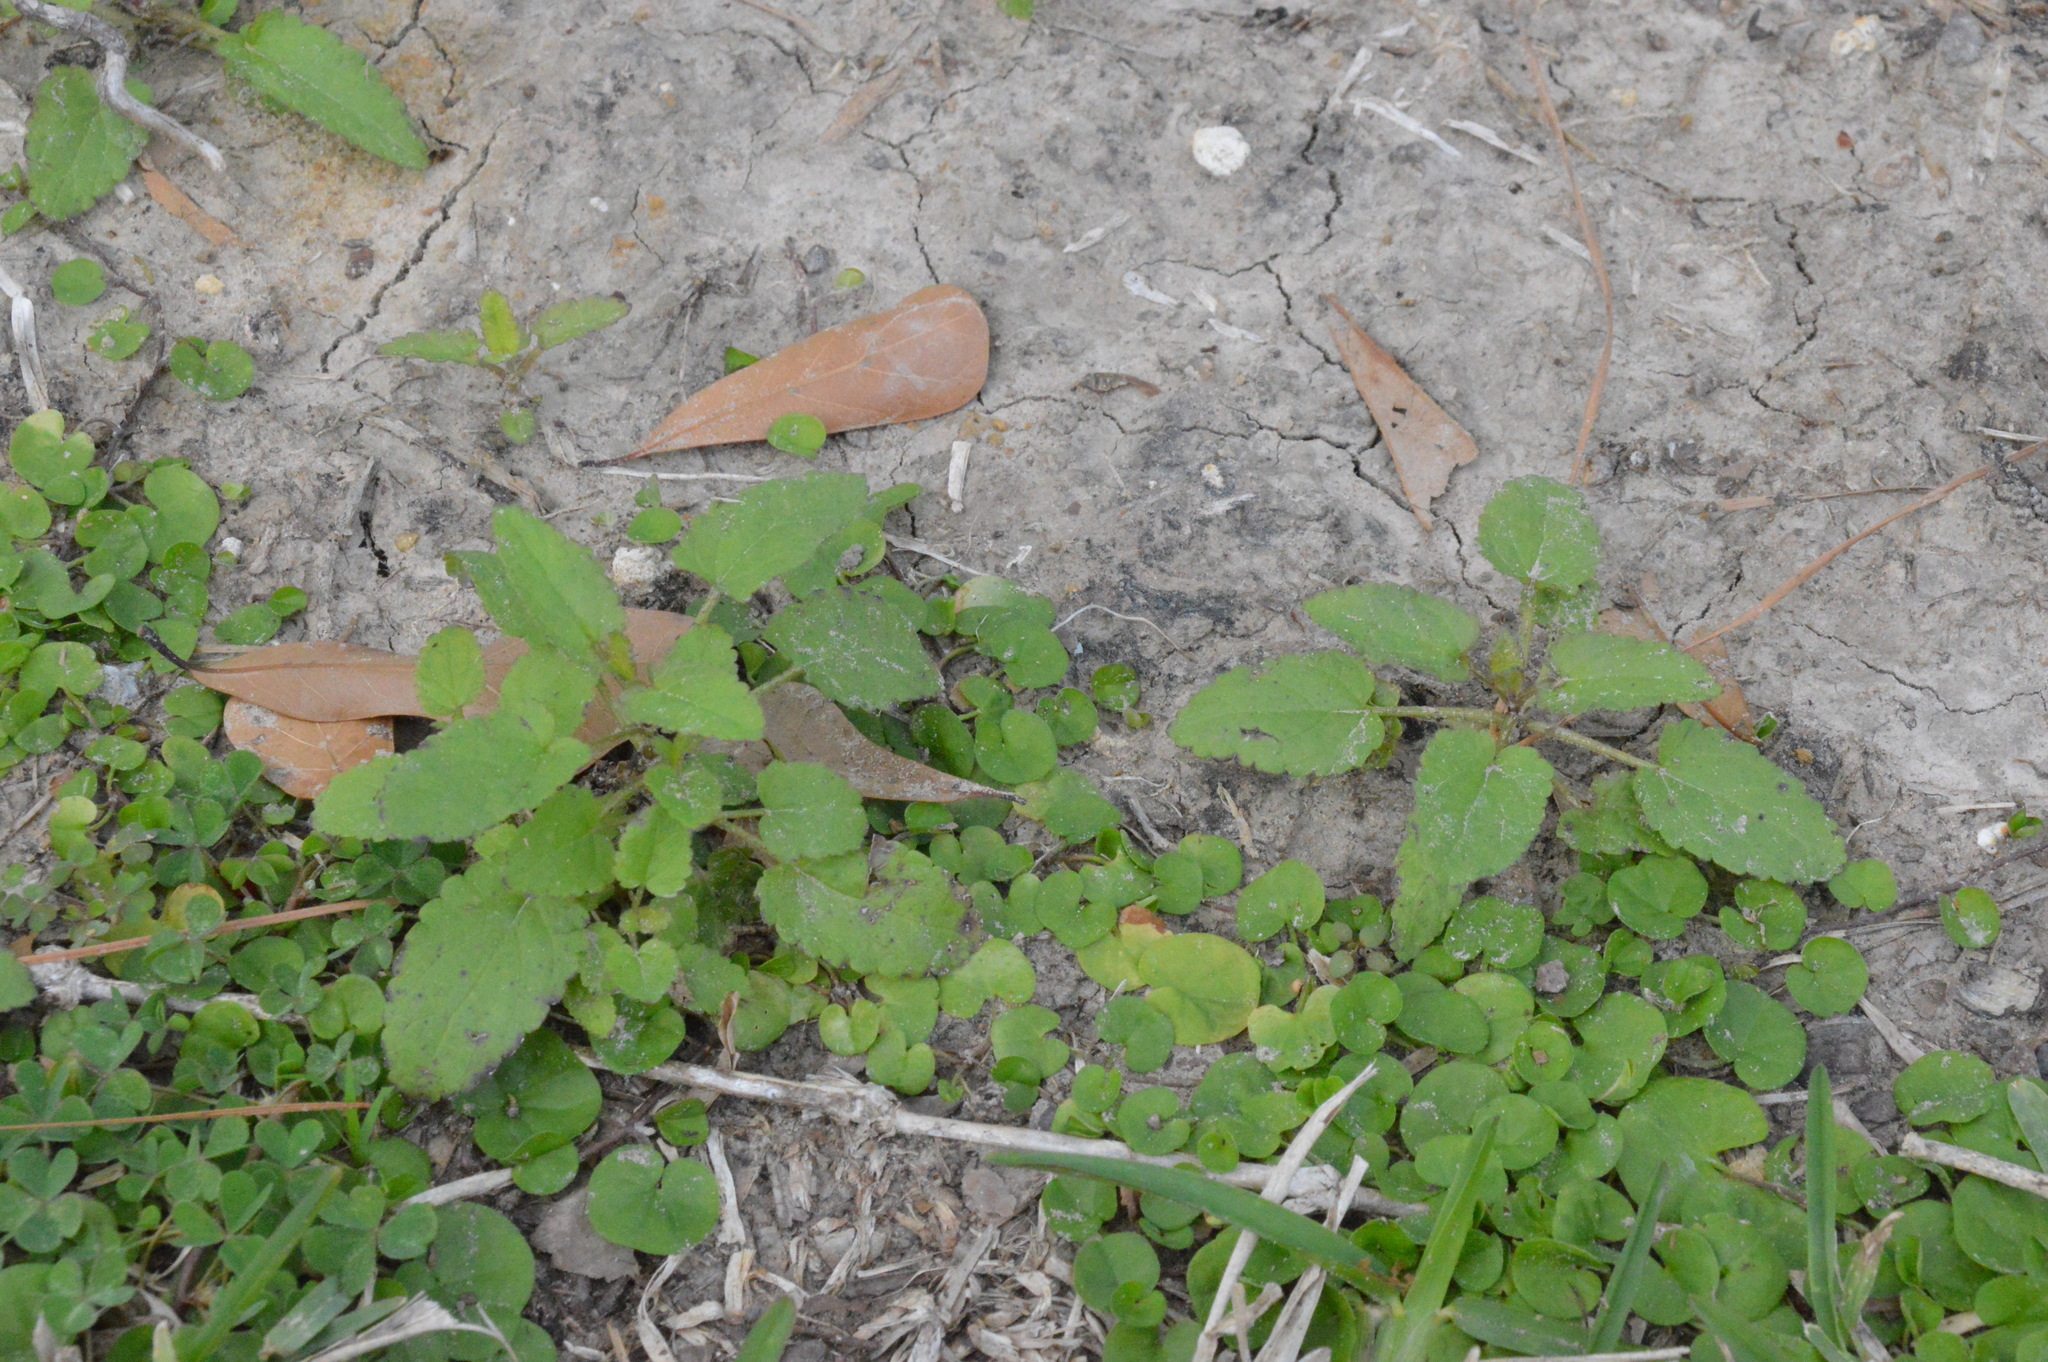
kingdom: Plantae
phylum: Tracheophyta
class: Magnoliopsida
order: Lamiales
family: Lamiaceae
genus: Stachys
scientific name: Stachys floridana
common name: Florida betony
